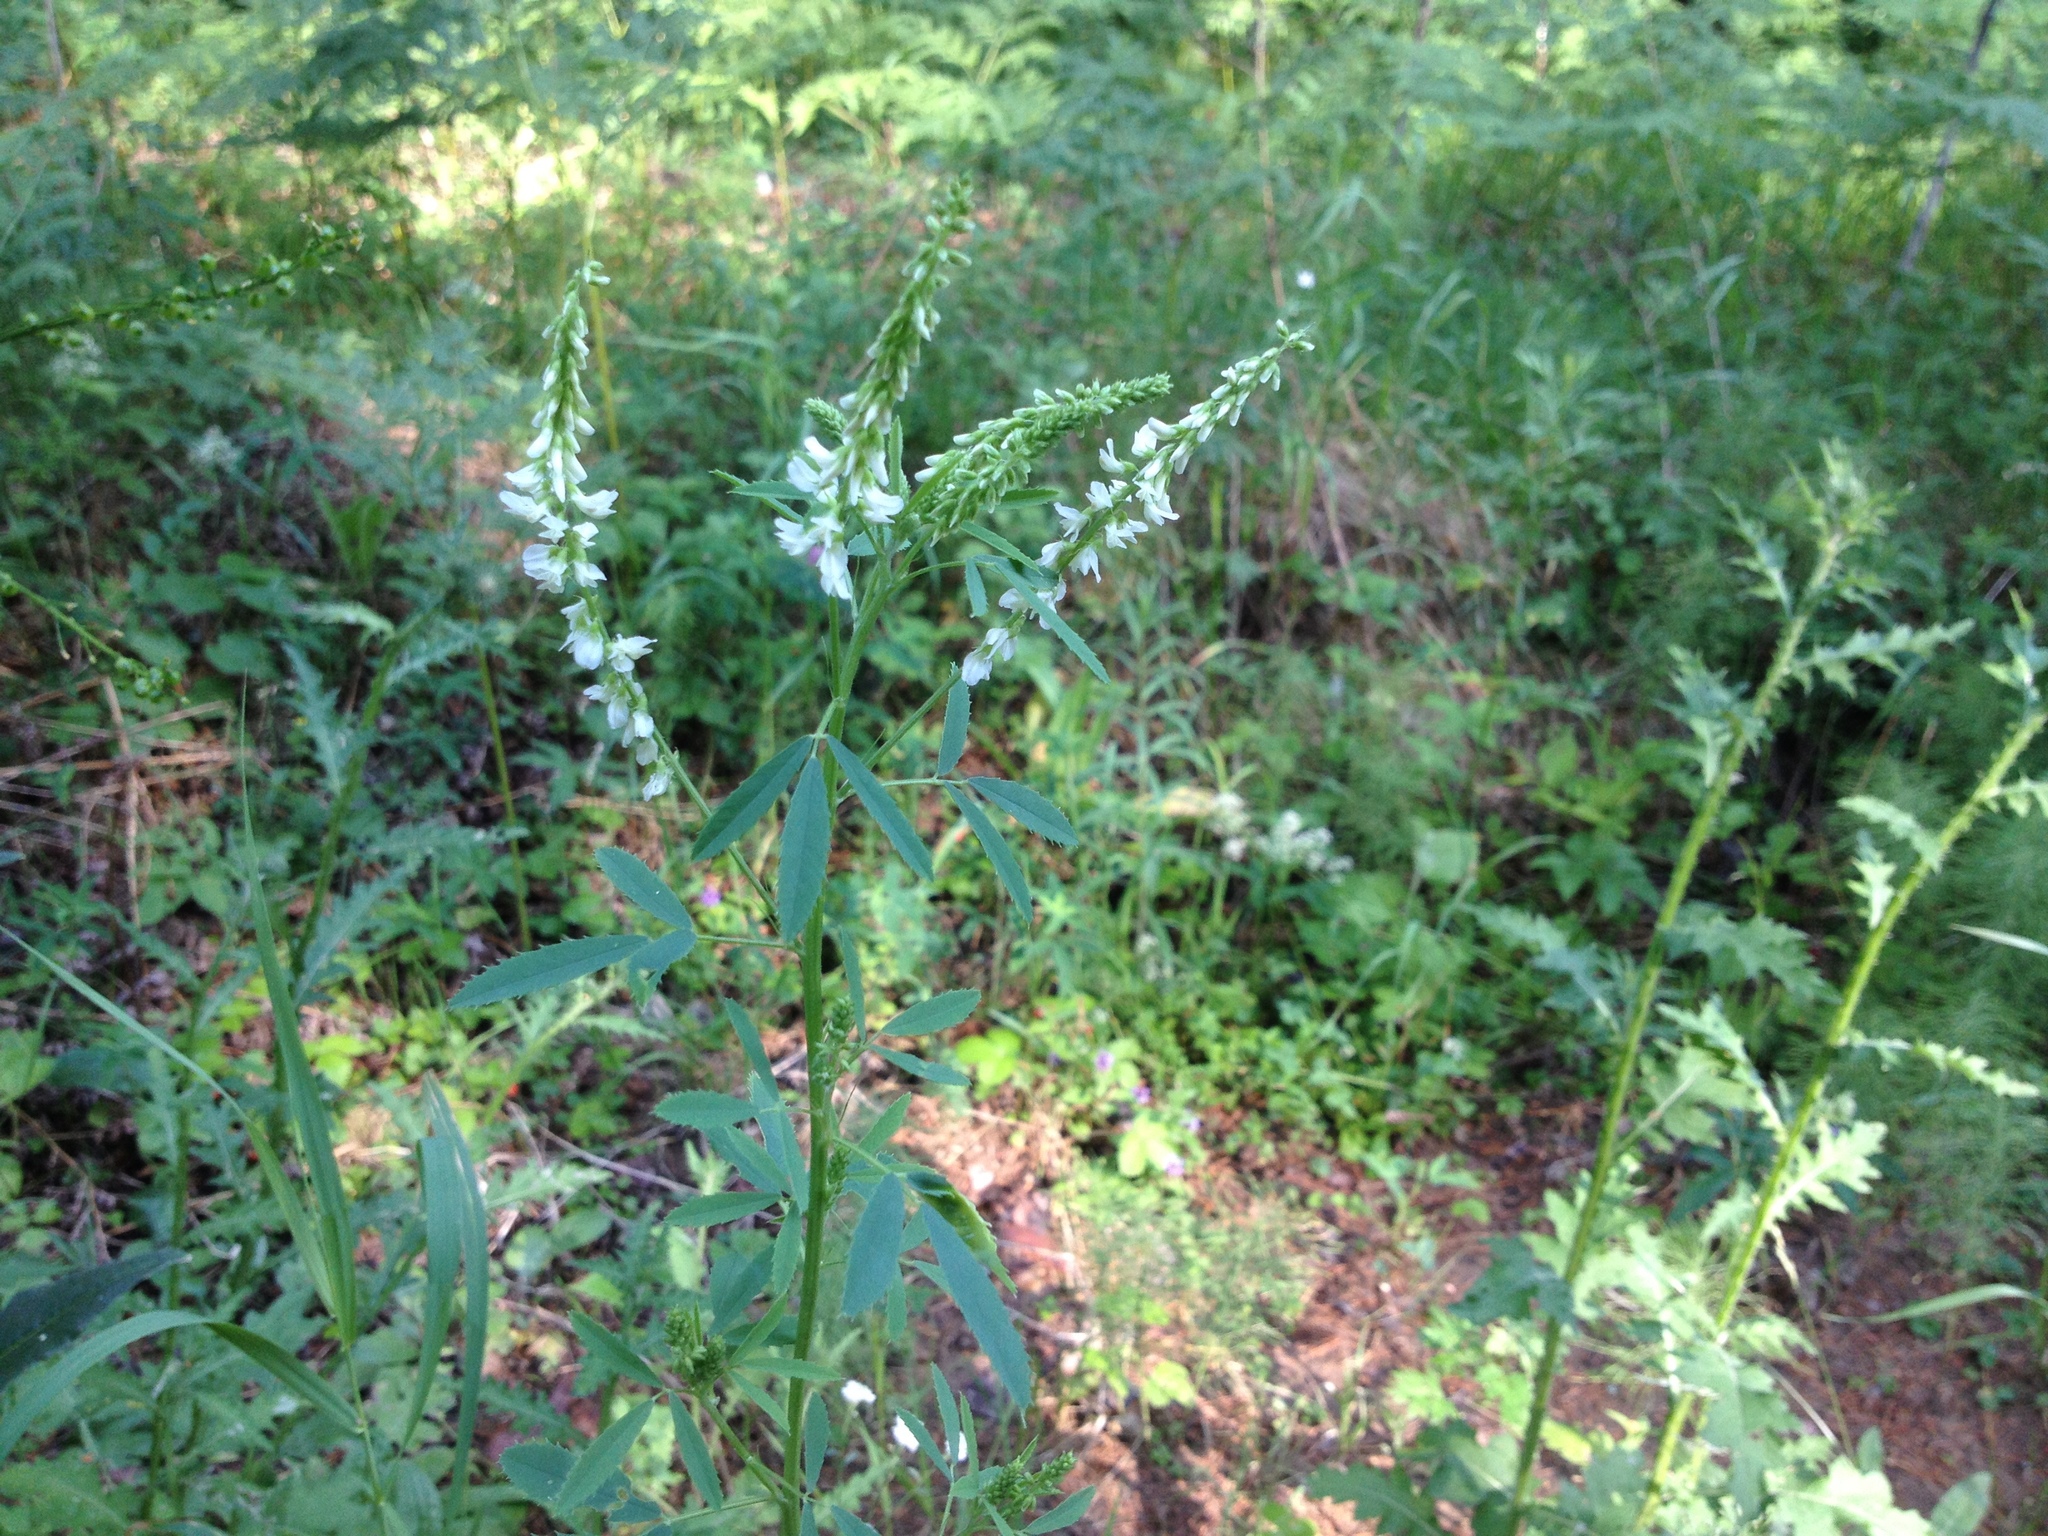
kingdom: Plantae
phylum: Tracheophyta
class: Magnoliopsida
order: Fabales
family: Fabaceae
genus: Melilotus
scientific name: Melilotus albus
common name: White melilot
